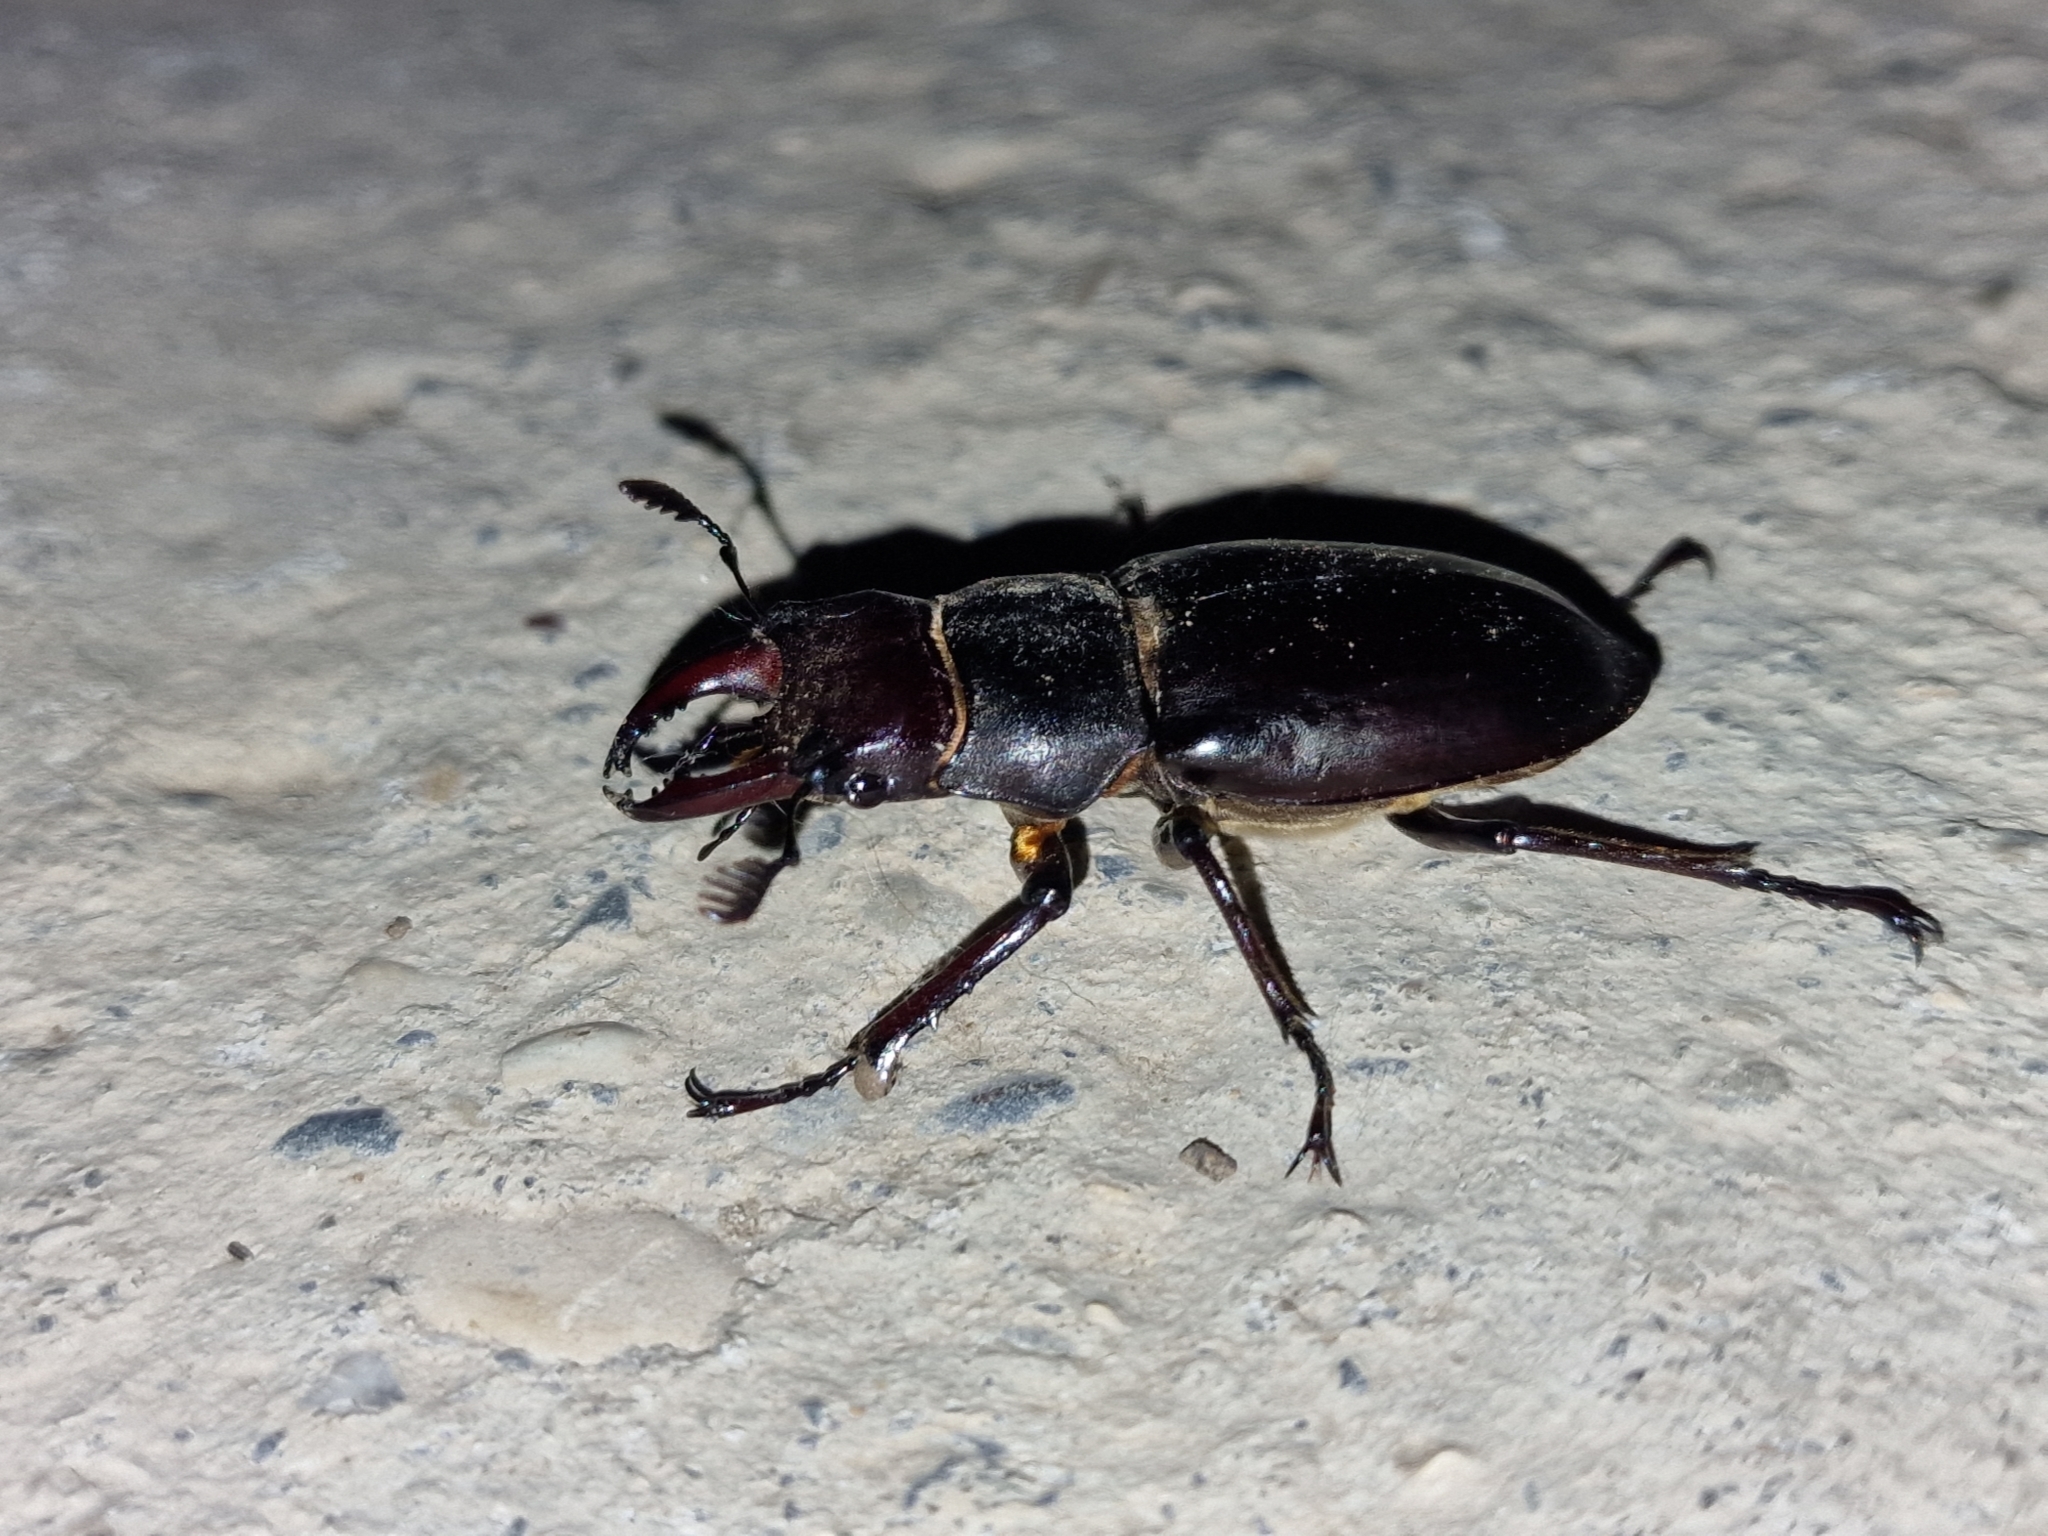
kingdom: Animalia
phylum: Arthropoda
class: Insecta
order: Coleoptera
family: Lucanidae
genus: Lucanus
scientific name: Lucanus ibericus
